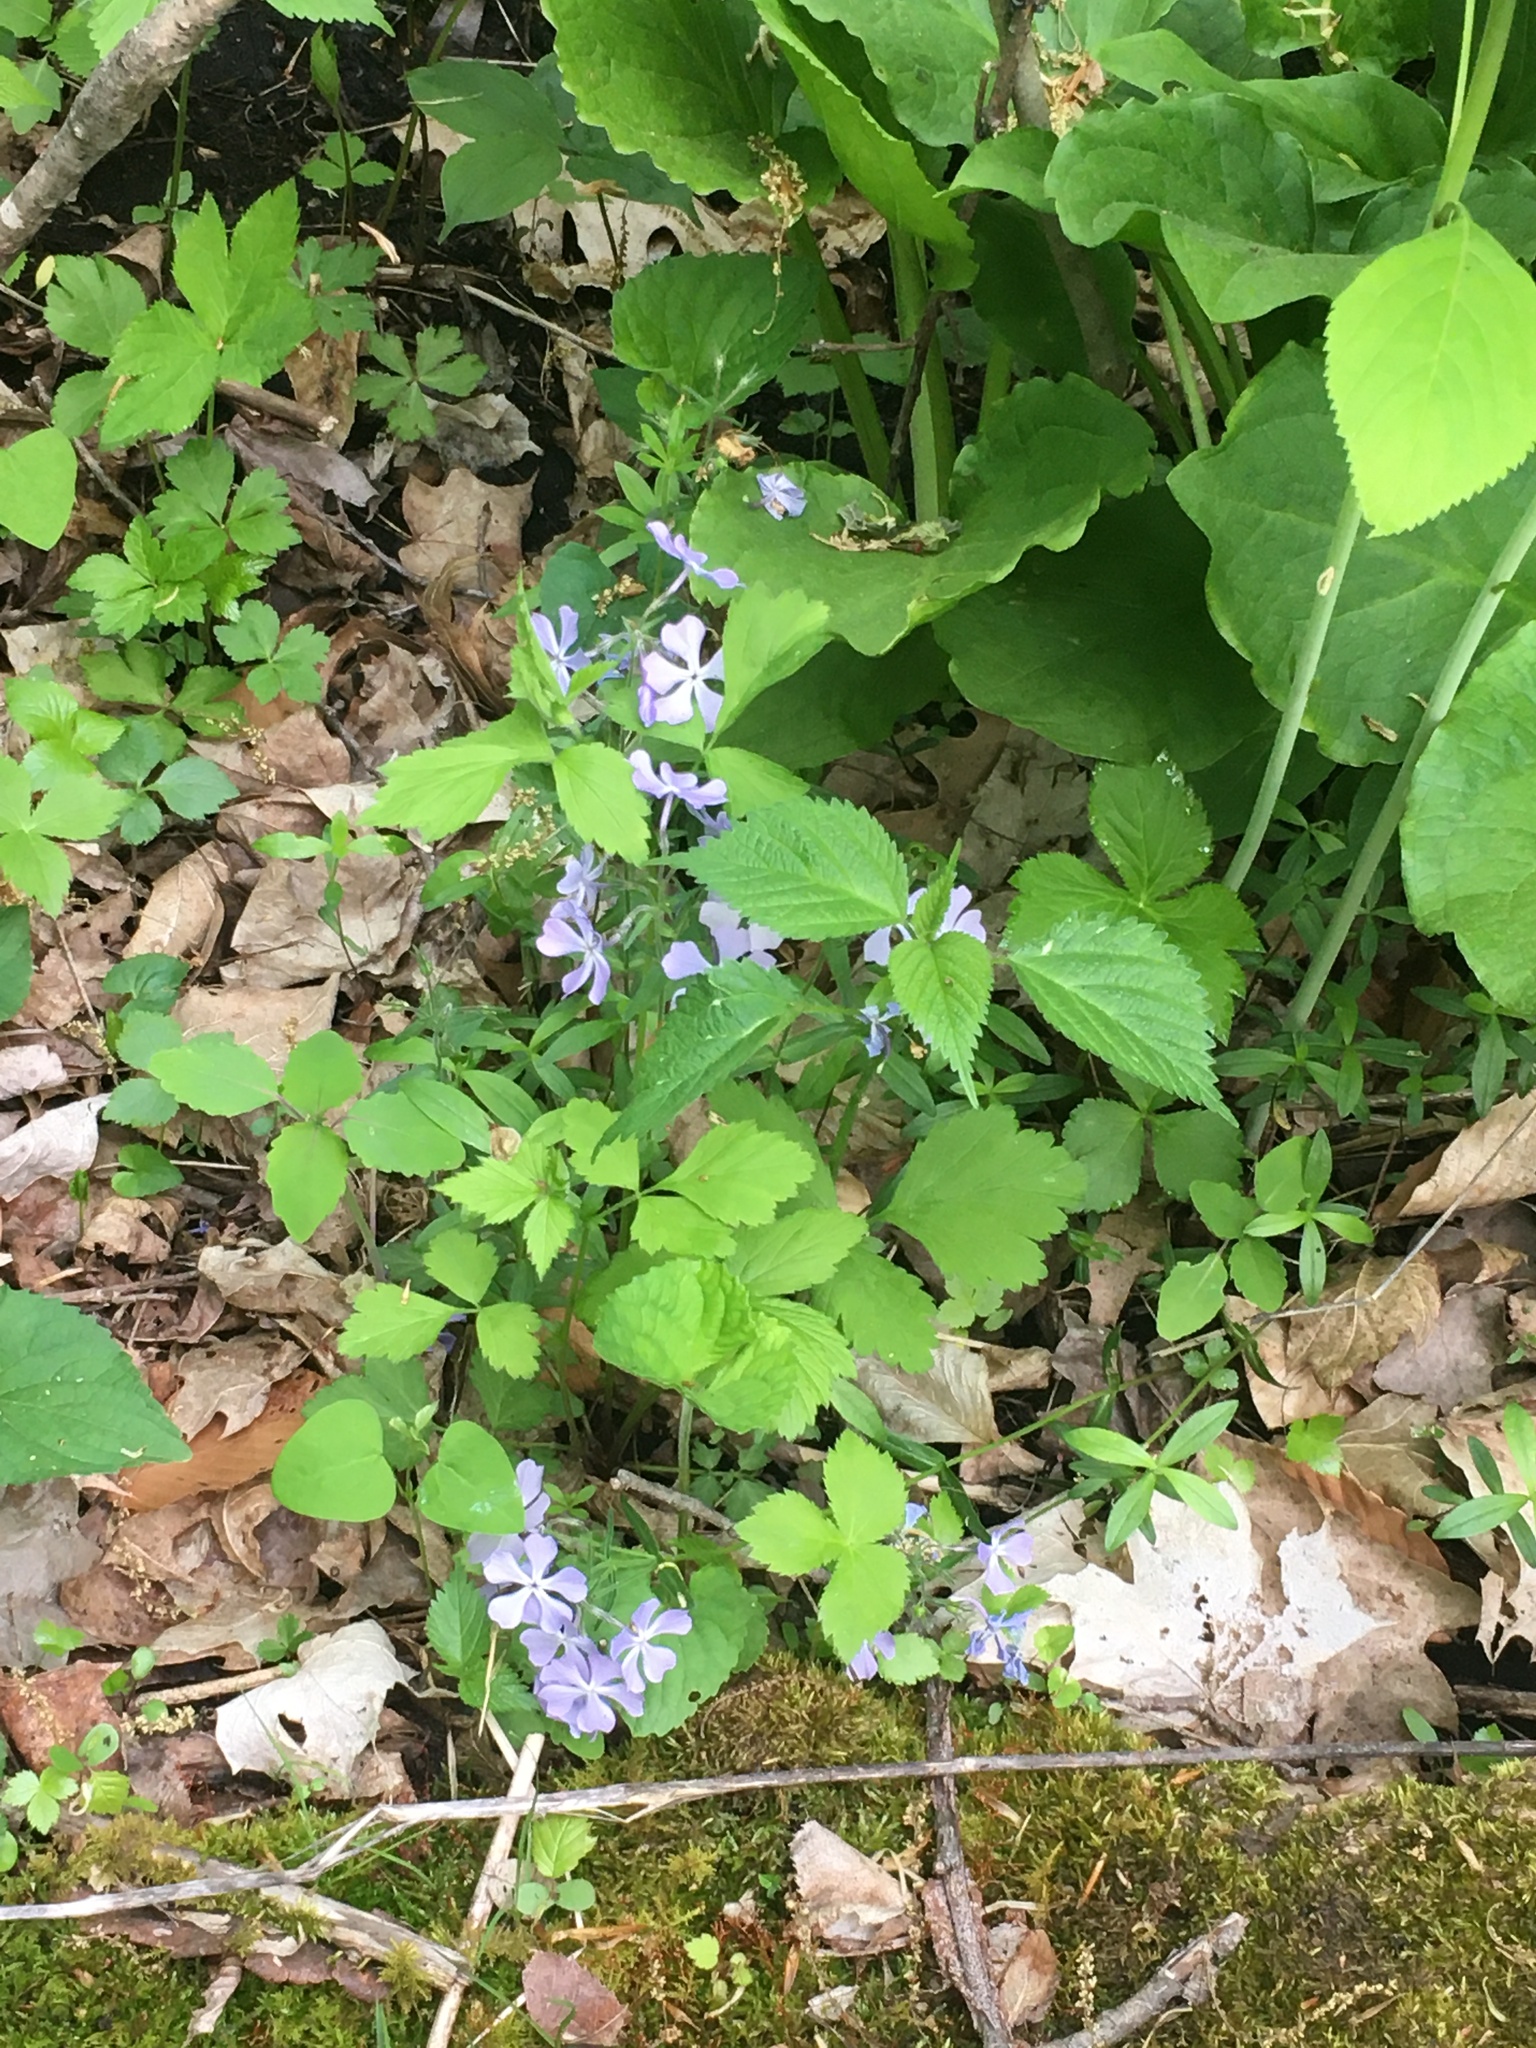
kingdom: Plantae
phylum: Tracheophyta
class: Magnoliopsida
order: Ericales
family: Polemoniaceae
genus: Phlox
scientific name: Phlox divaricata
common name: Blue phlox
